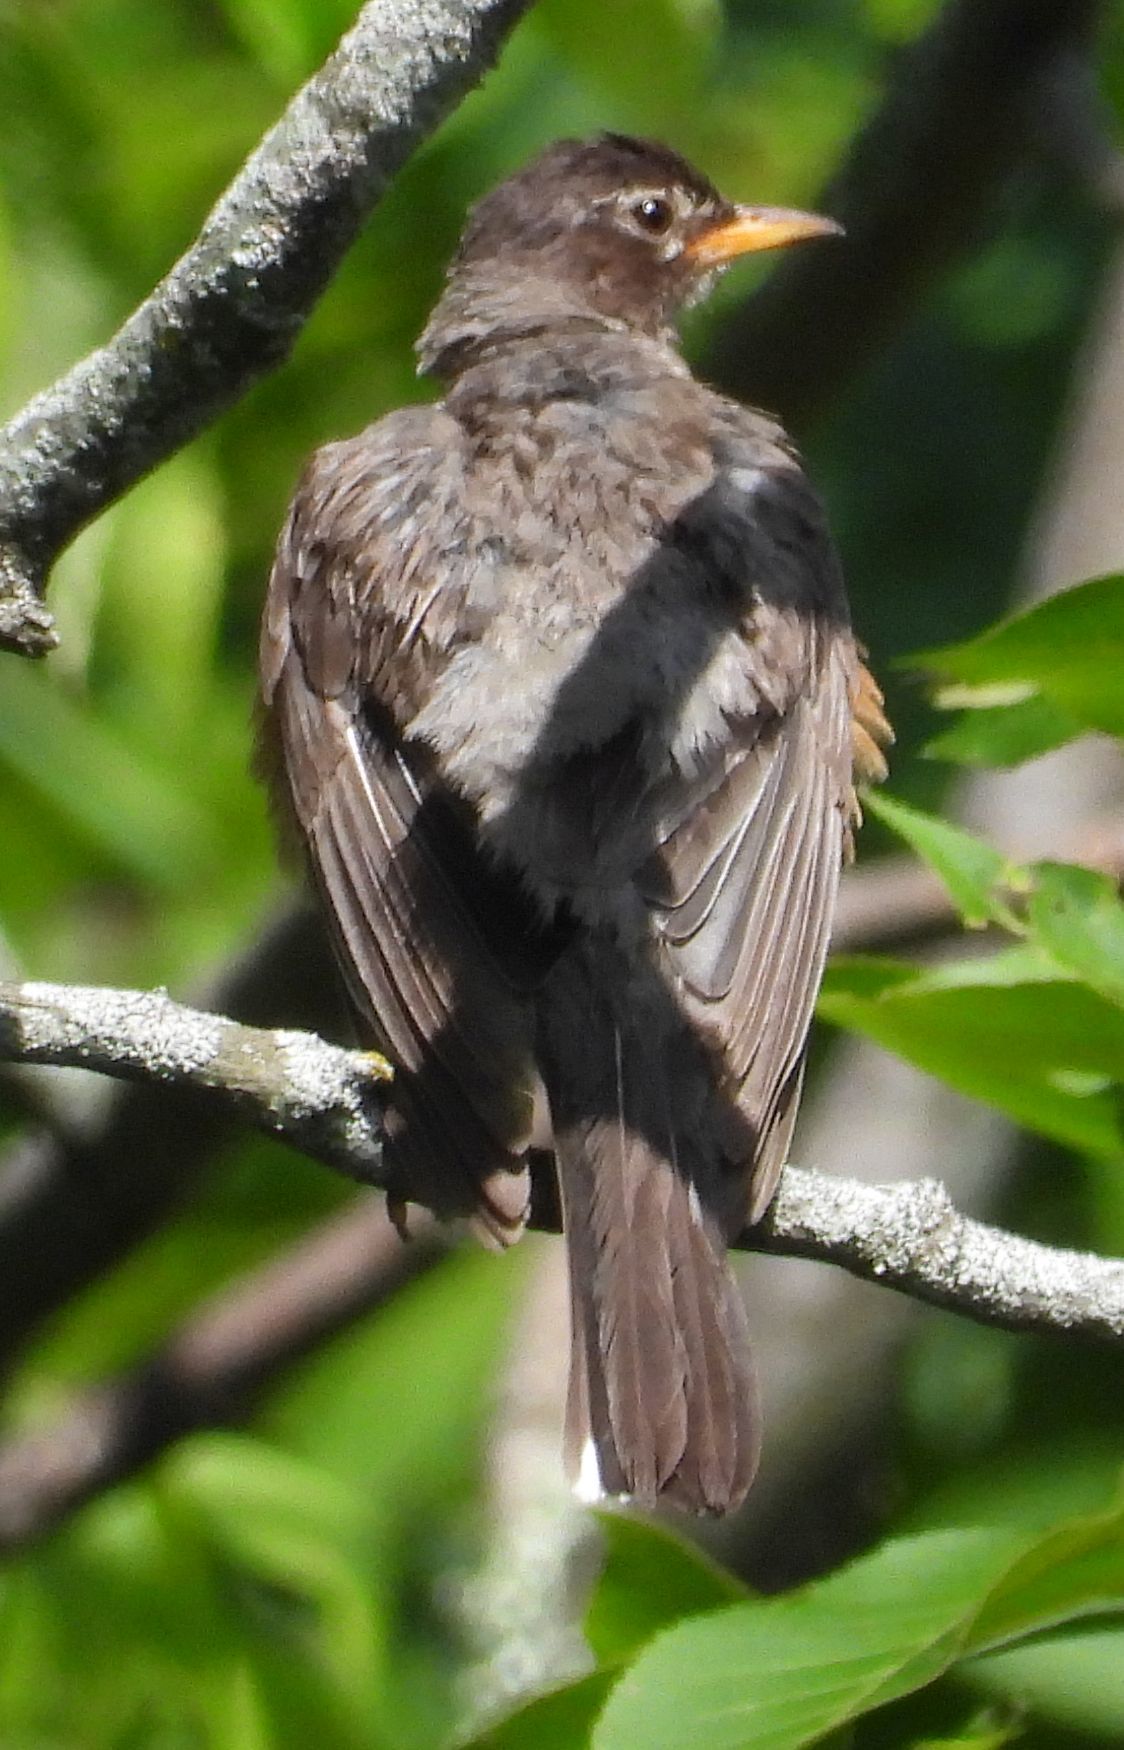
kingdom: Animalia
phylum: Chordata
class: Aves
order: Passeriformes
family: Turdidae
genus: Turdus
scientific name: Turdus migratorius
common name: American robin
